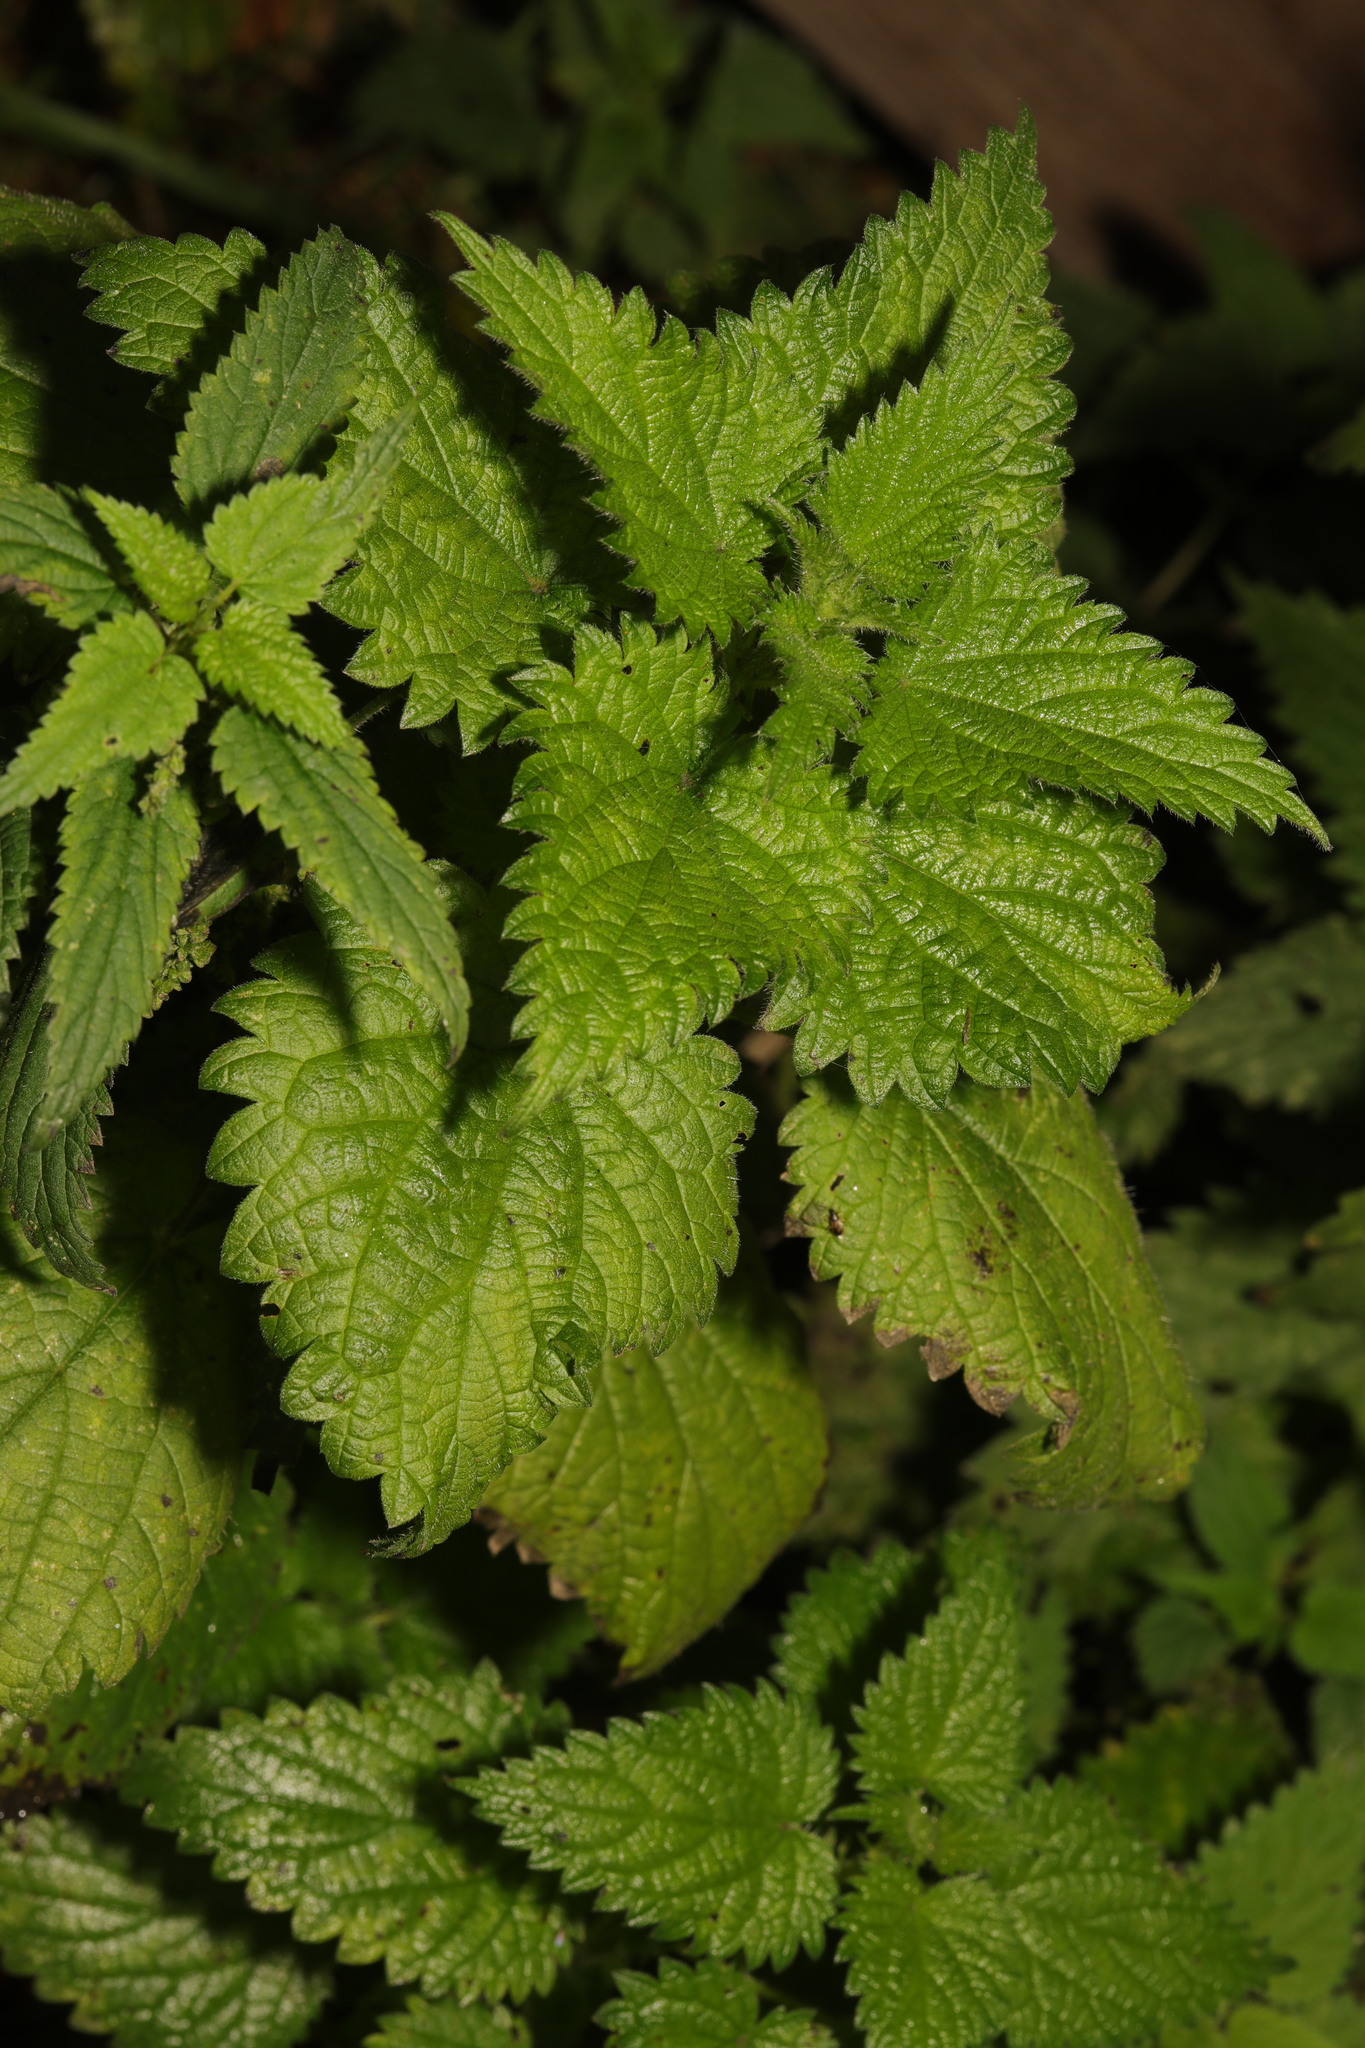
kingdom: Plantae
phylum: Tracheophyta
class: Magnoliopsida
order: Rosales
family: Urticaceae
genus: Urtica
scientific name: Urtica dioica
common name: Common nettle
